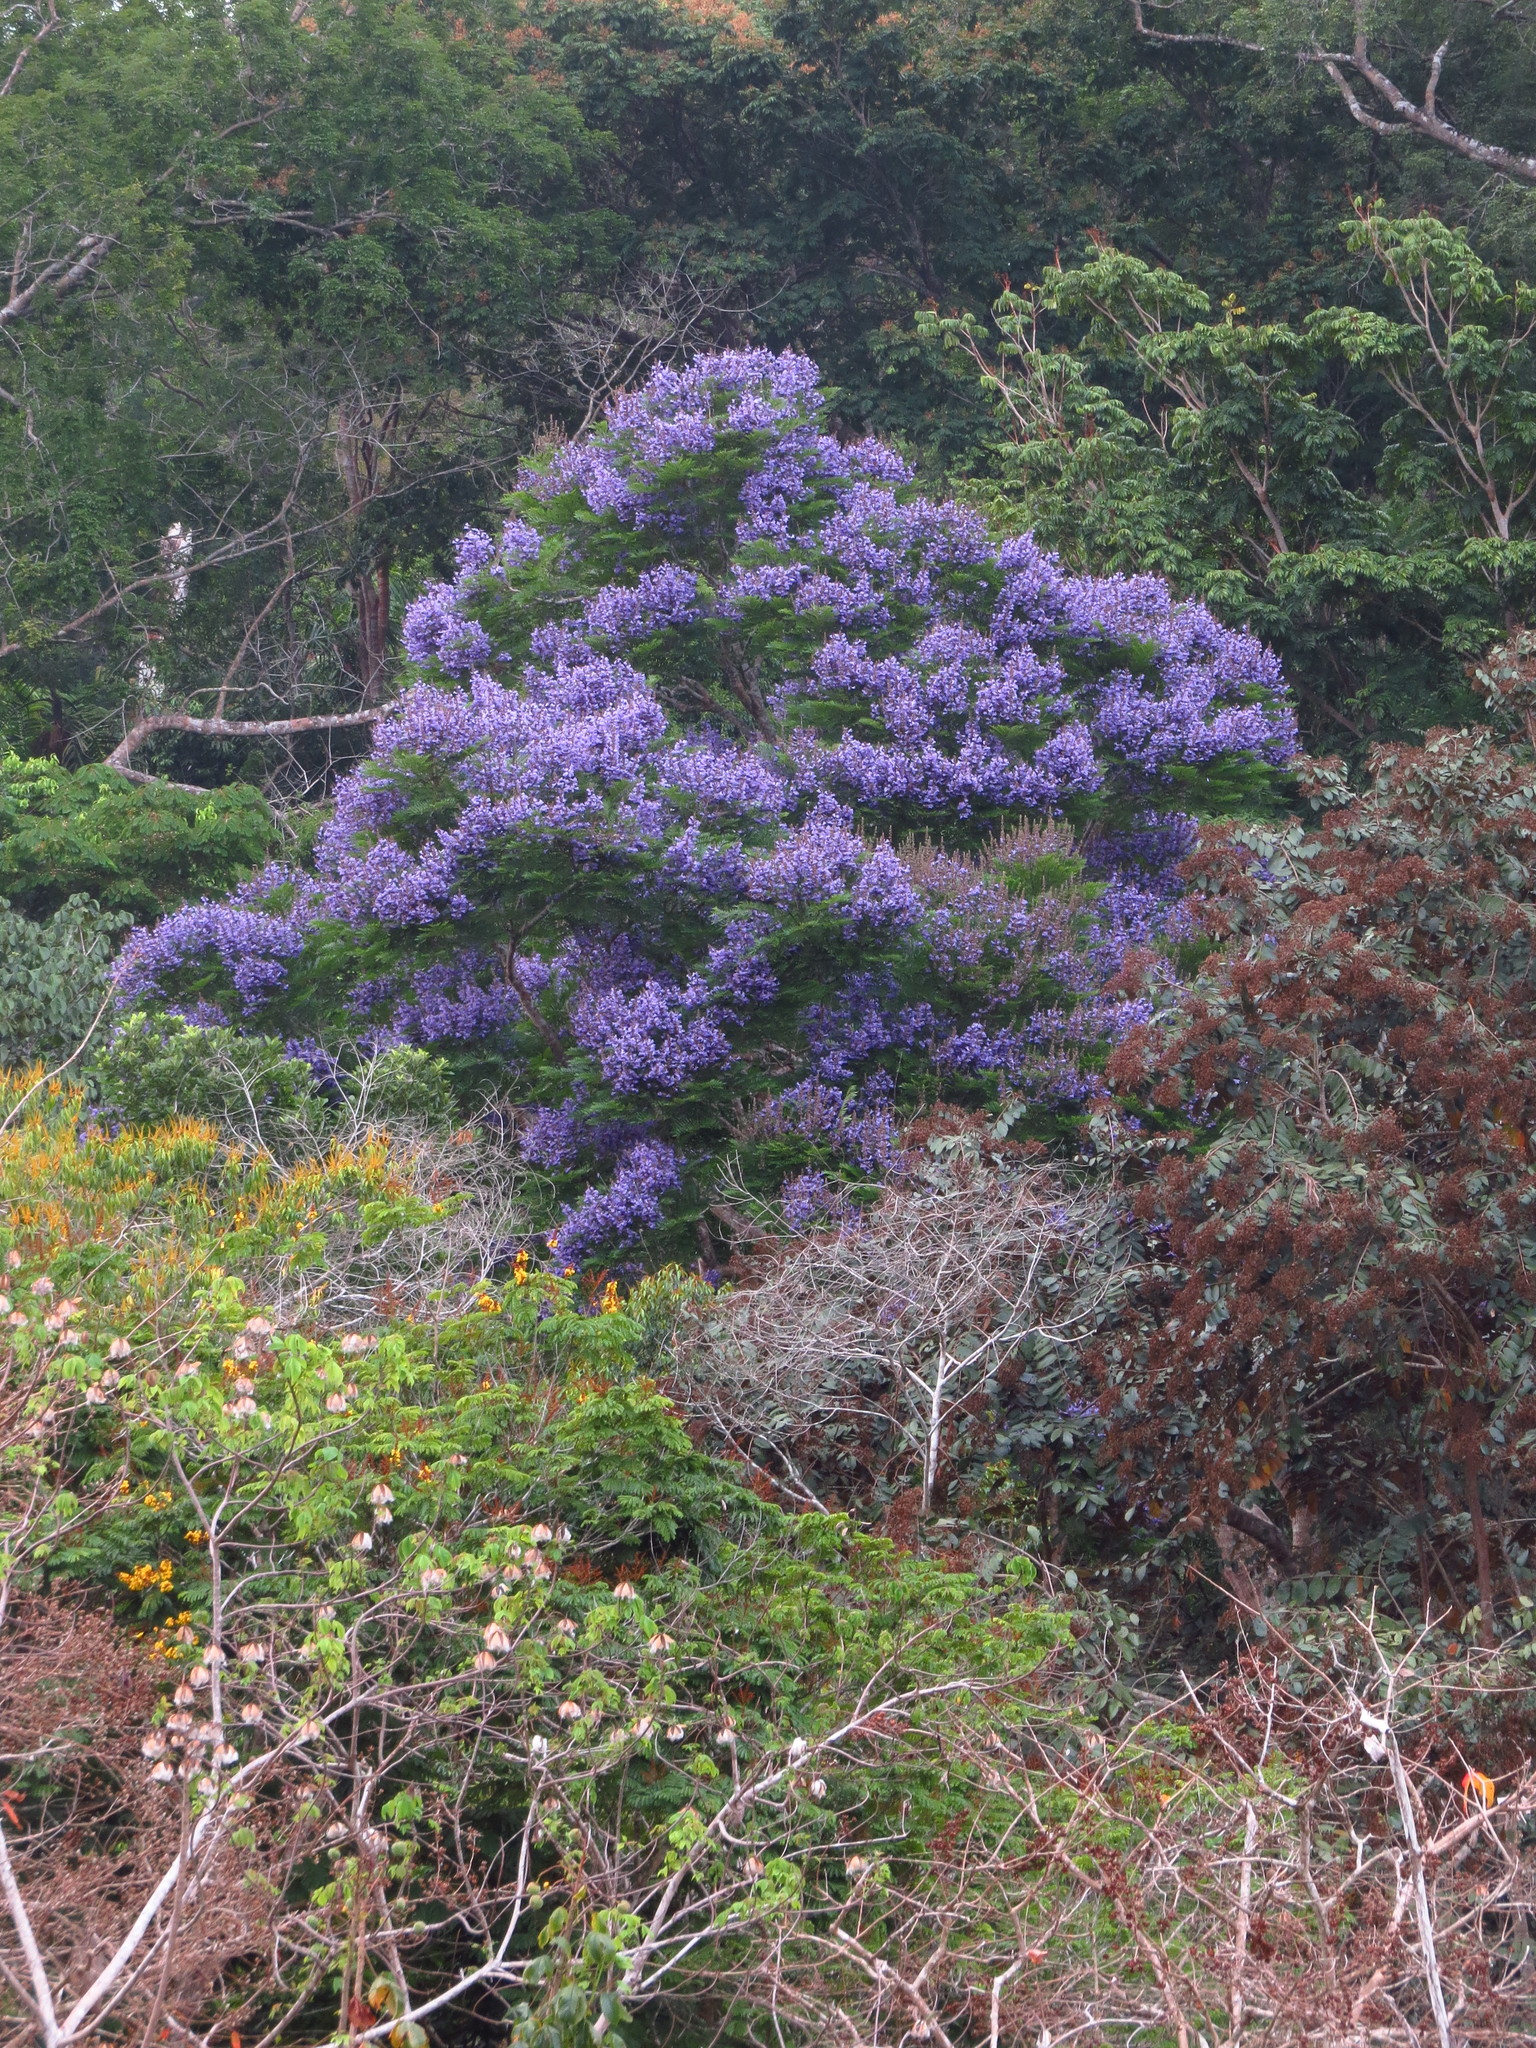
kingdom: Plantae
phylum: Tracheophyta
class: Magnoliopsida
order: Lamiales
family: Bignoniaceae
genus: Jacaranda
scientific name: Jacaranda copaia
